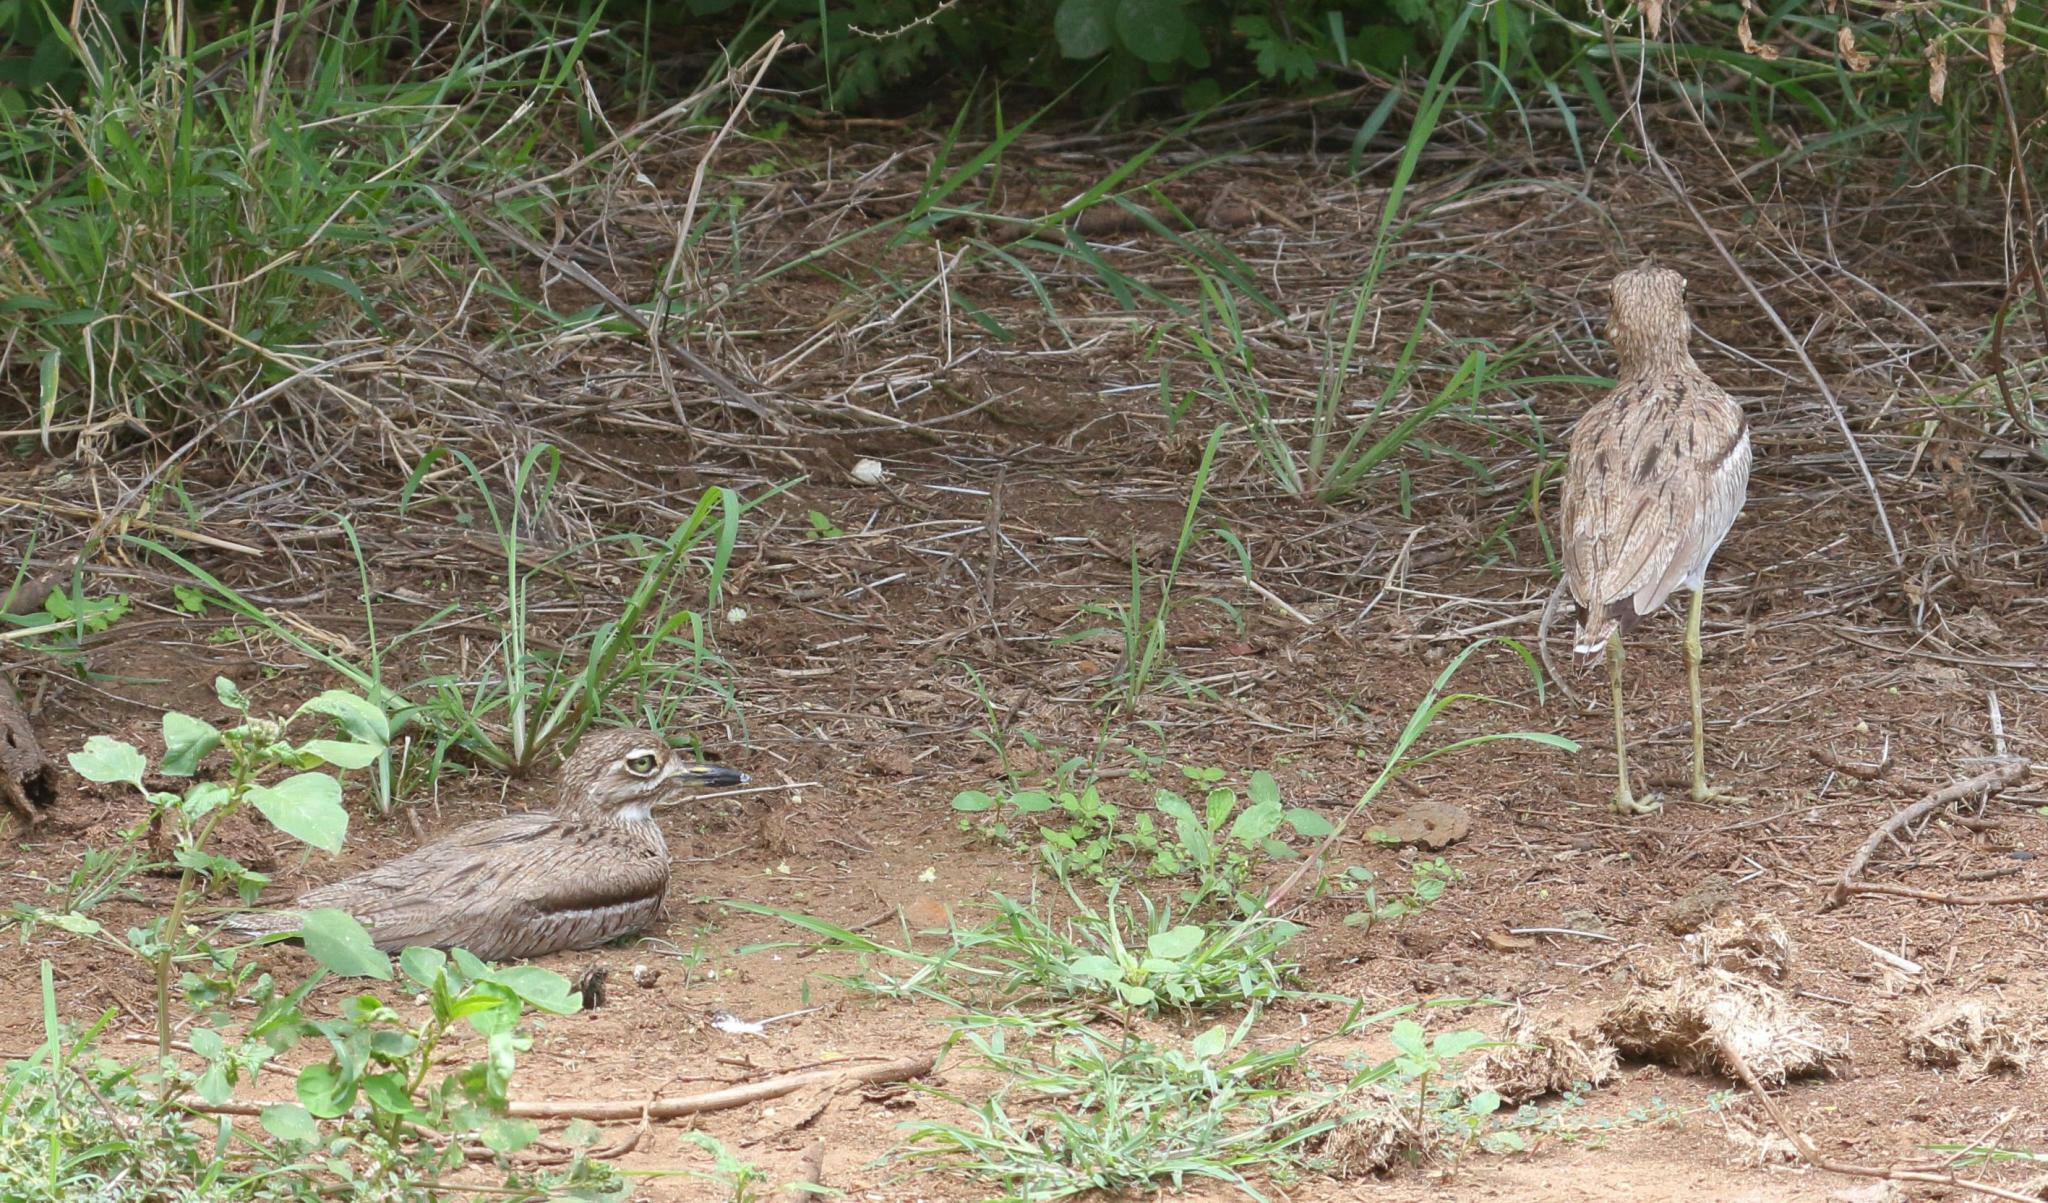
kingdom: Animalia
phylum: Chordata
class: Aves
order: Charadriiformes
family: Burhinidae
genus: Burhinus
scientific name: Burhinus vermiculatus
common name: Water thick-knee
